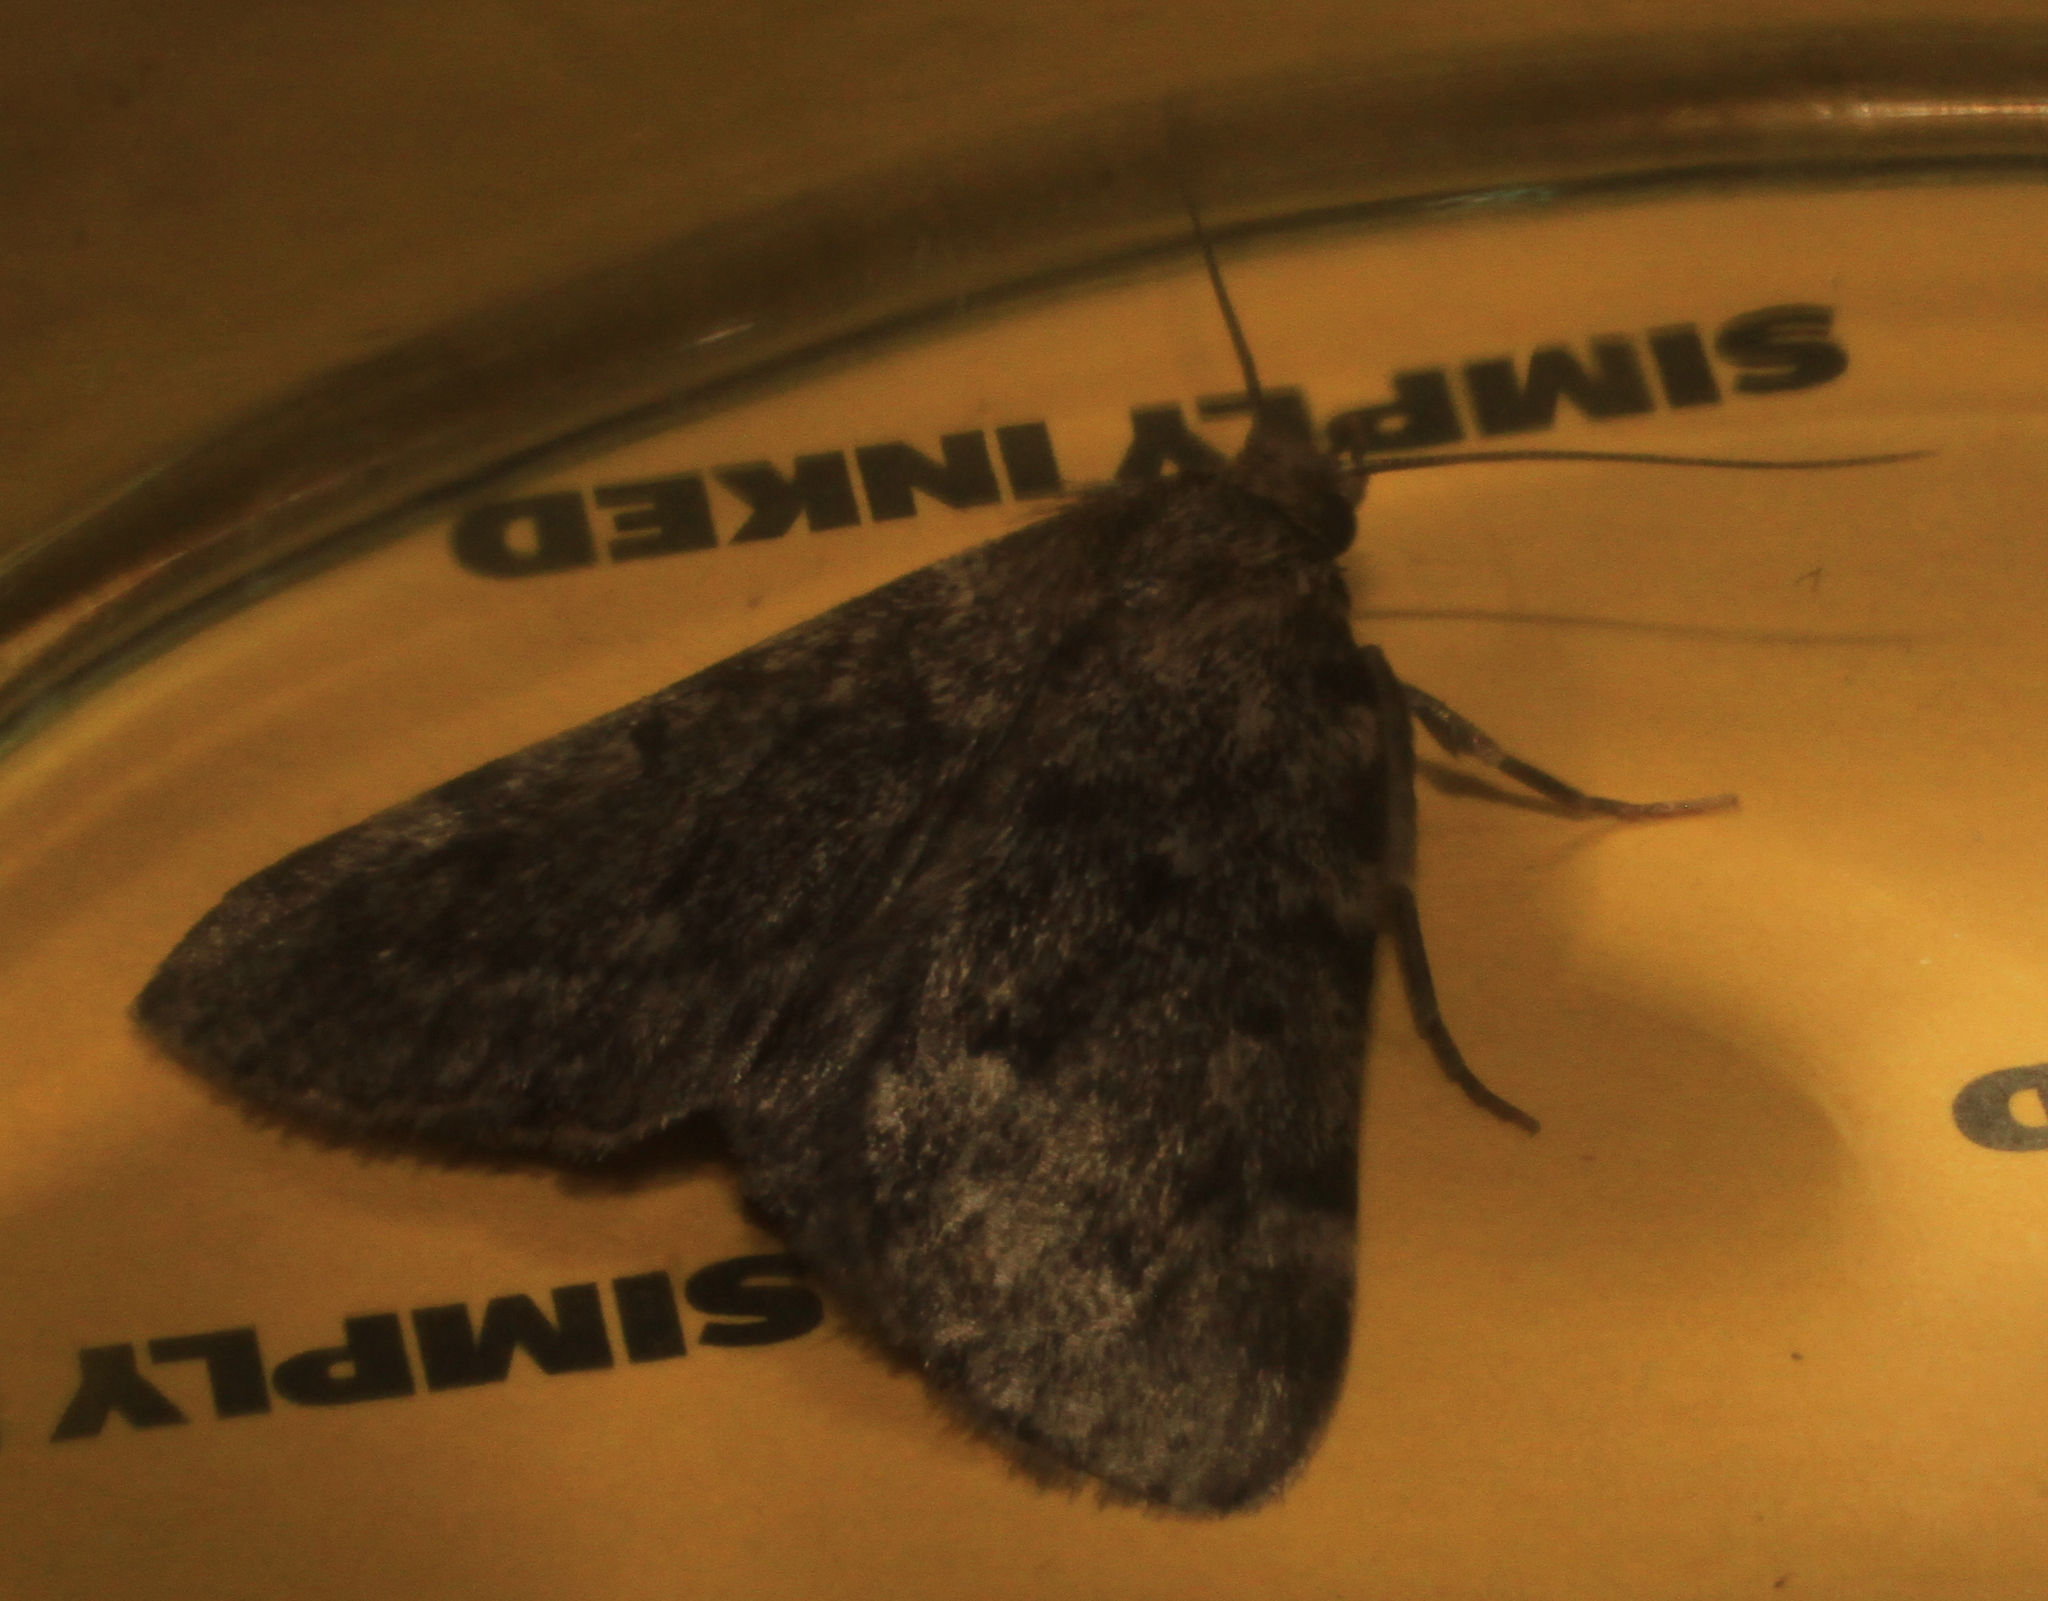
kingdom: Animalia
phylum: Arthropoda
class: Insecta
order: Lepidoptera
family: Pyralidae
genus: Aglossa
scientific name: Aglossa pinguinalis
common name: Large tabby
